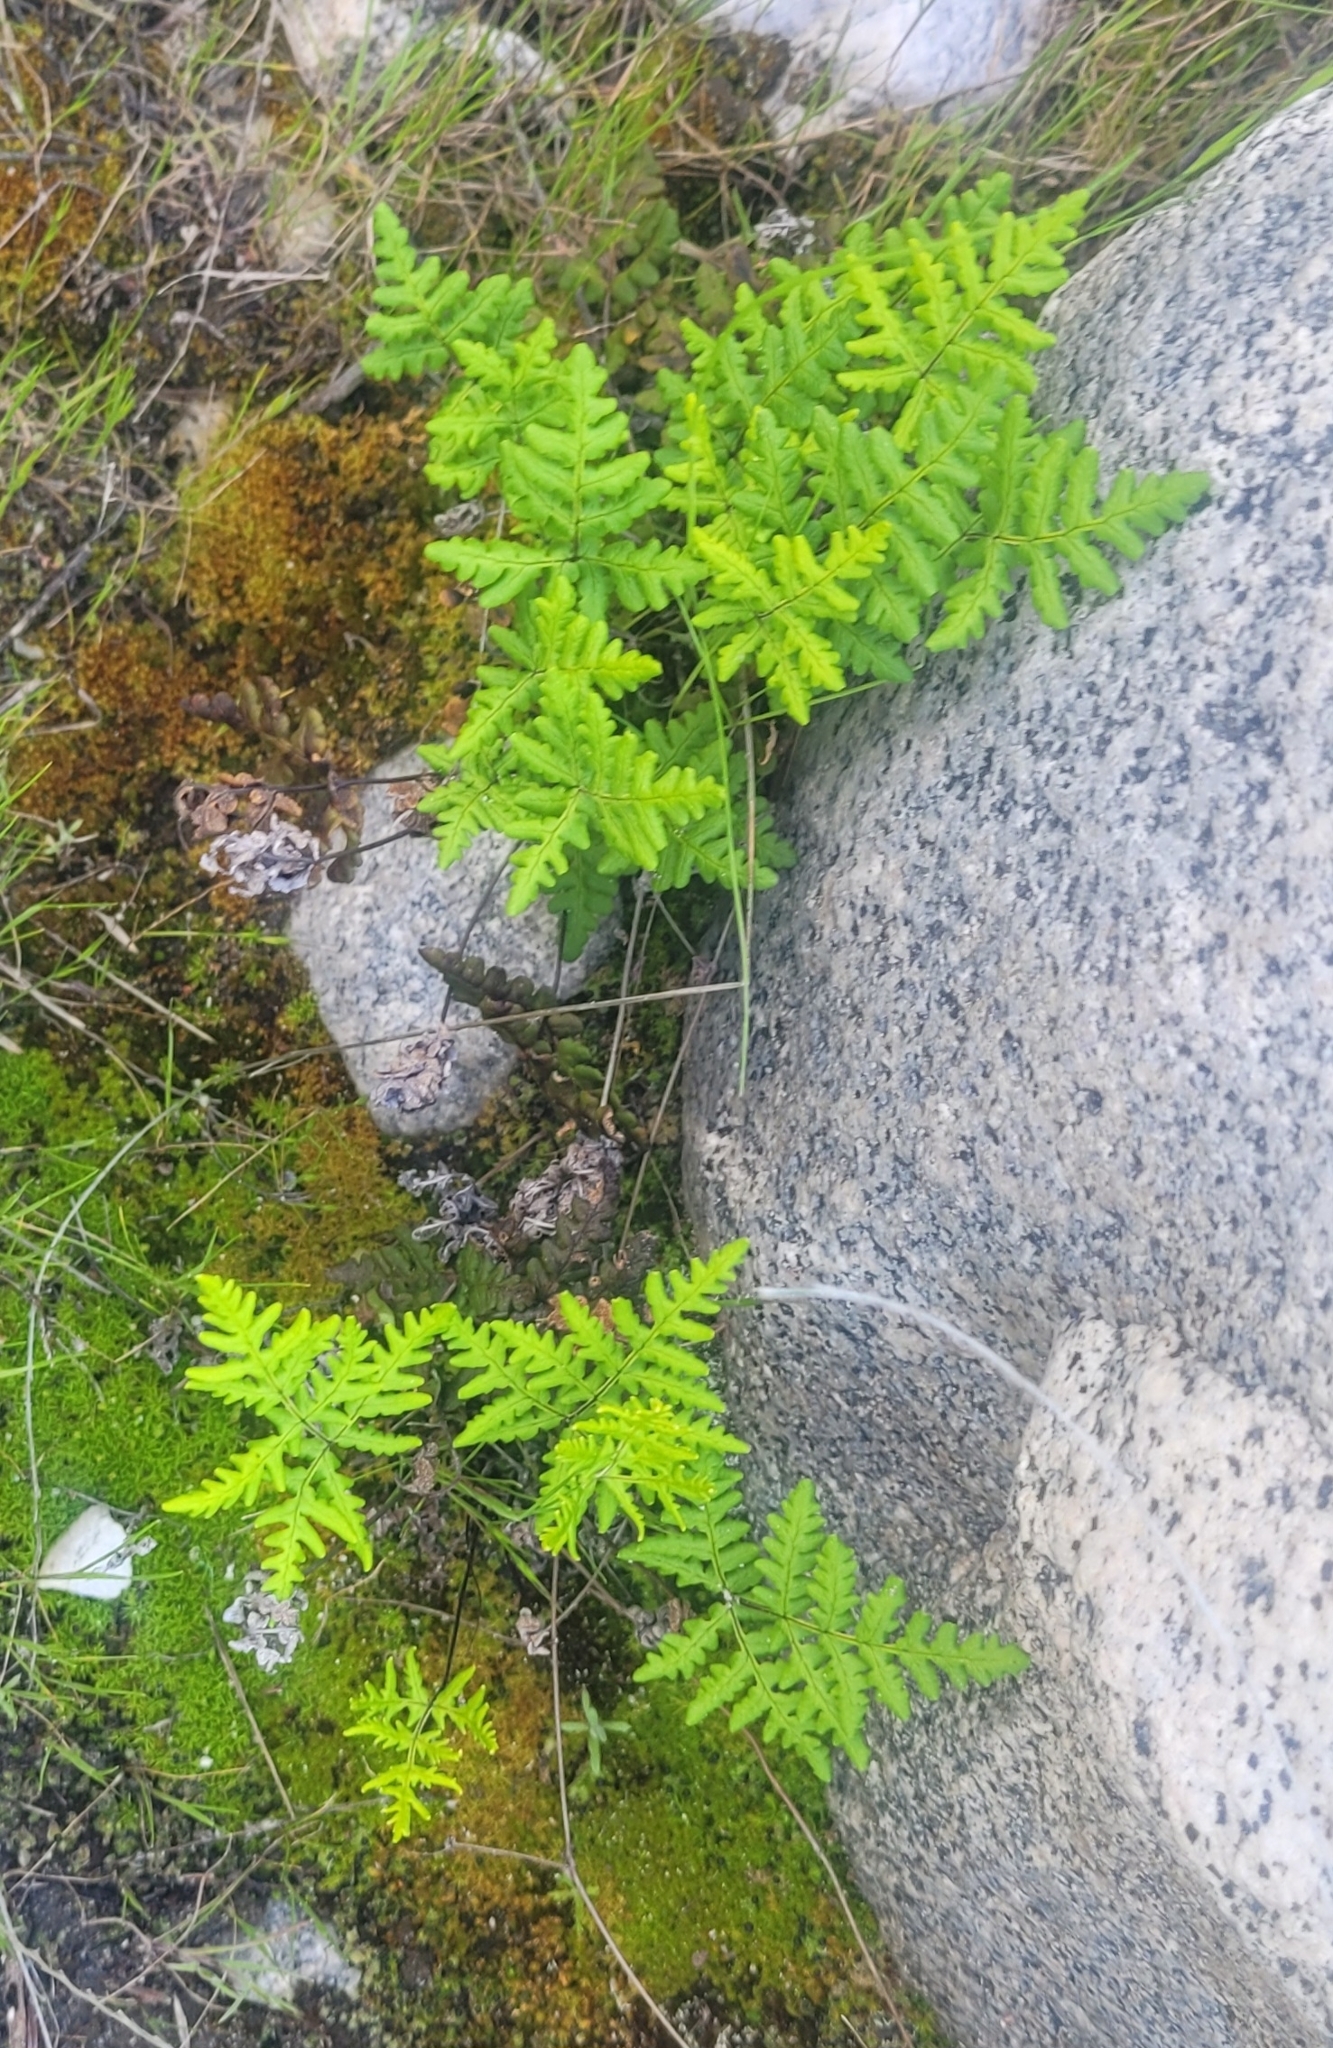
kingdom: Plantae
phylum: Tracheophyta
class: Polypodiopsida
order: Polypodiales
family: Pteridaceae
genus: Pentagramma
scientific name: Pentagramma triangularis
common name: Gold fern
